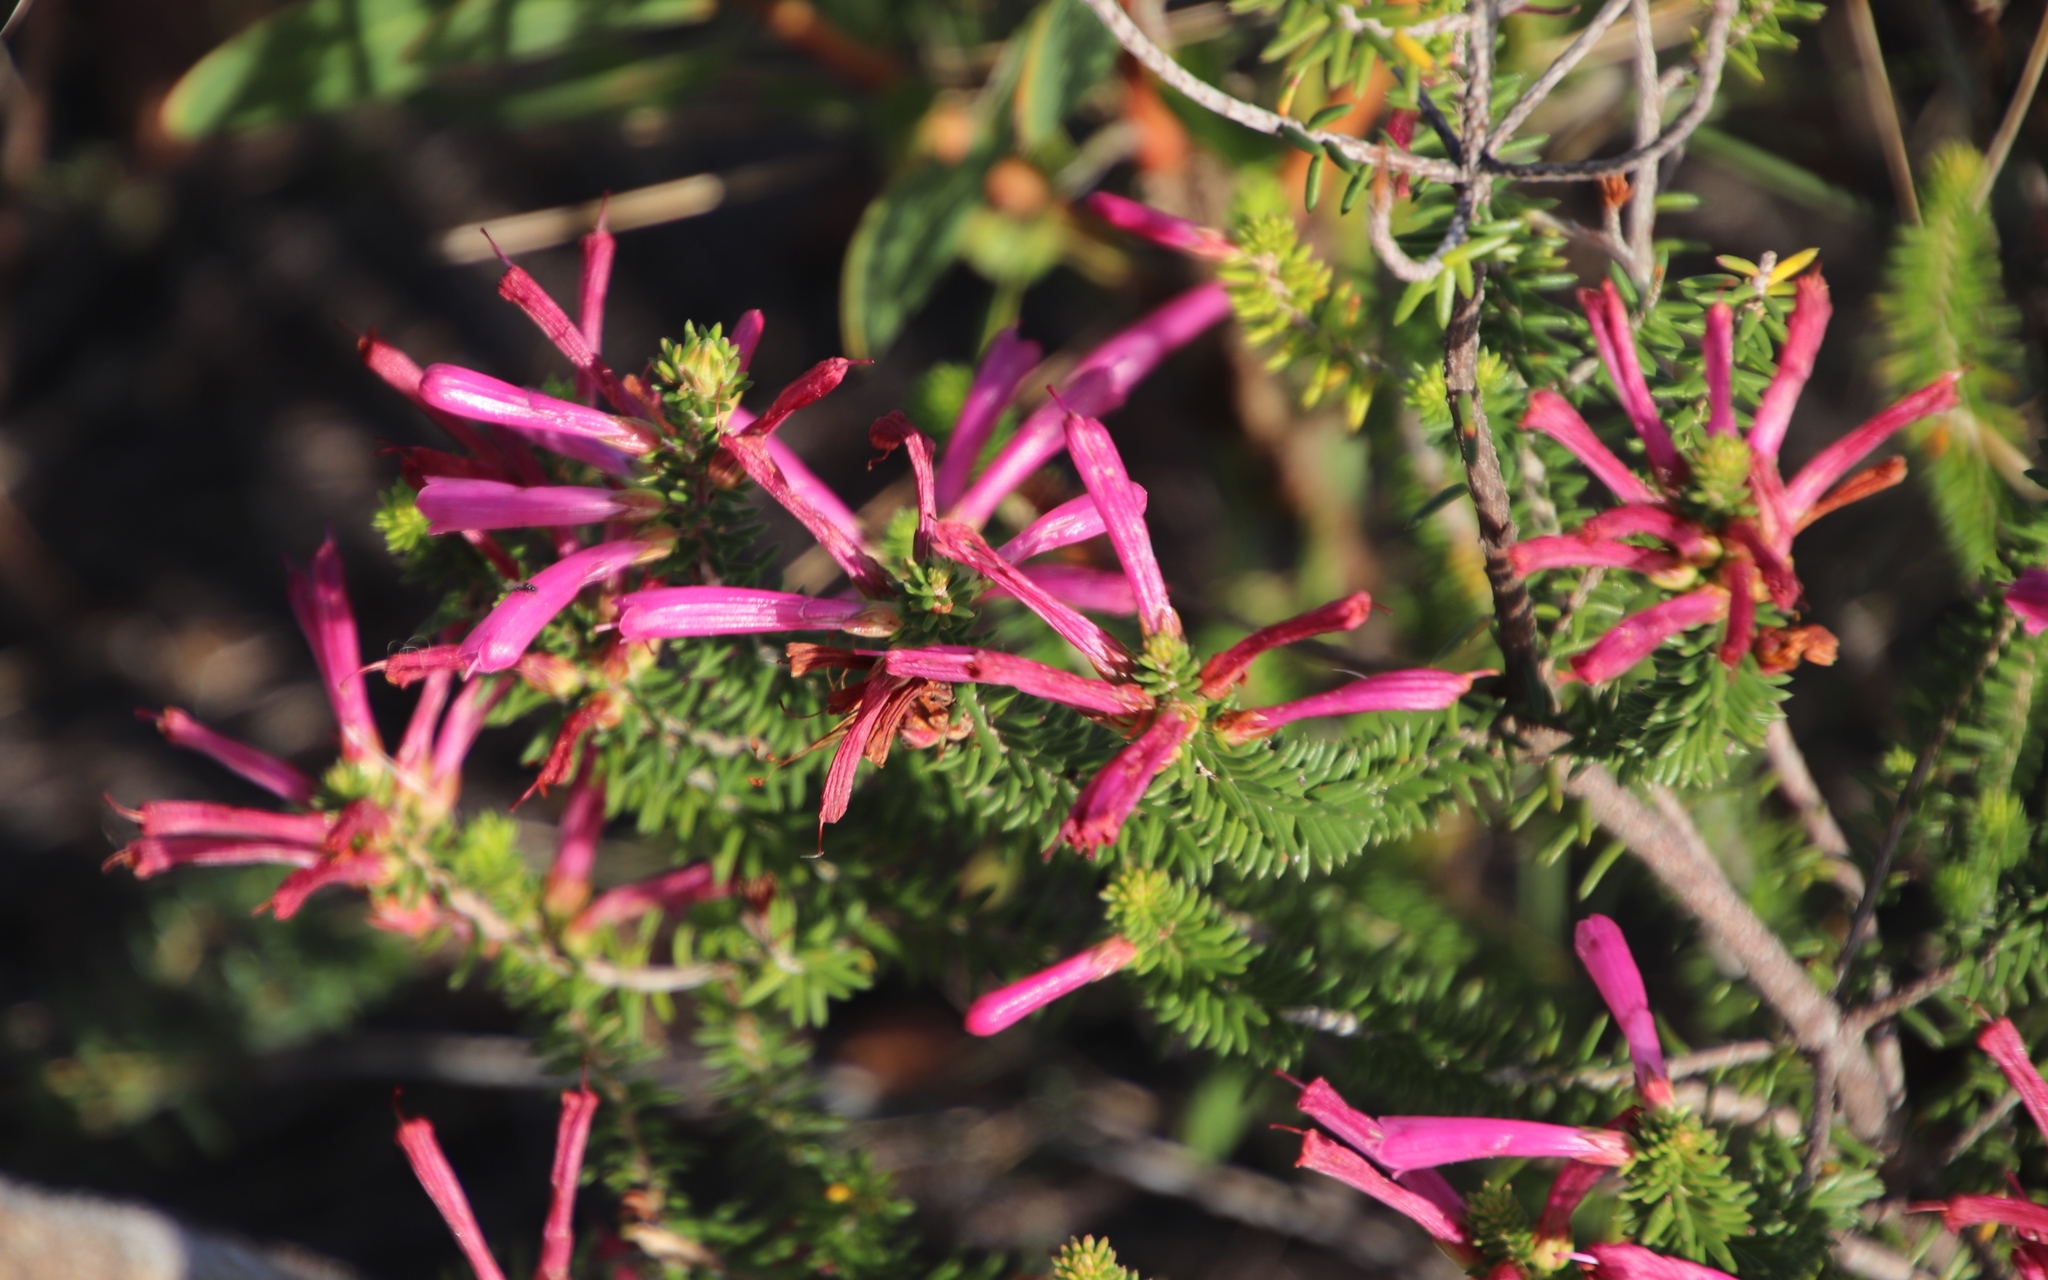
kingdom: Plantae
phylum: Tracheophyta
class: Magnoliopsida
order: Ericales
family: Ericaceae
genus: Erica
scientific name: Erica abietina
